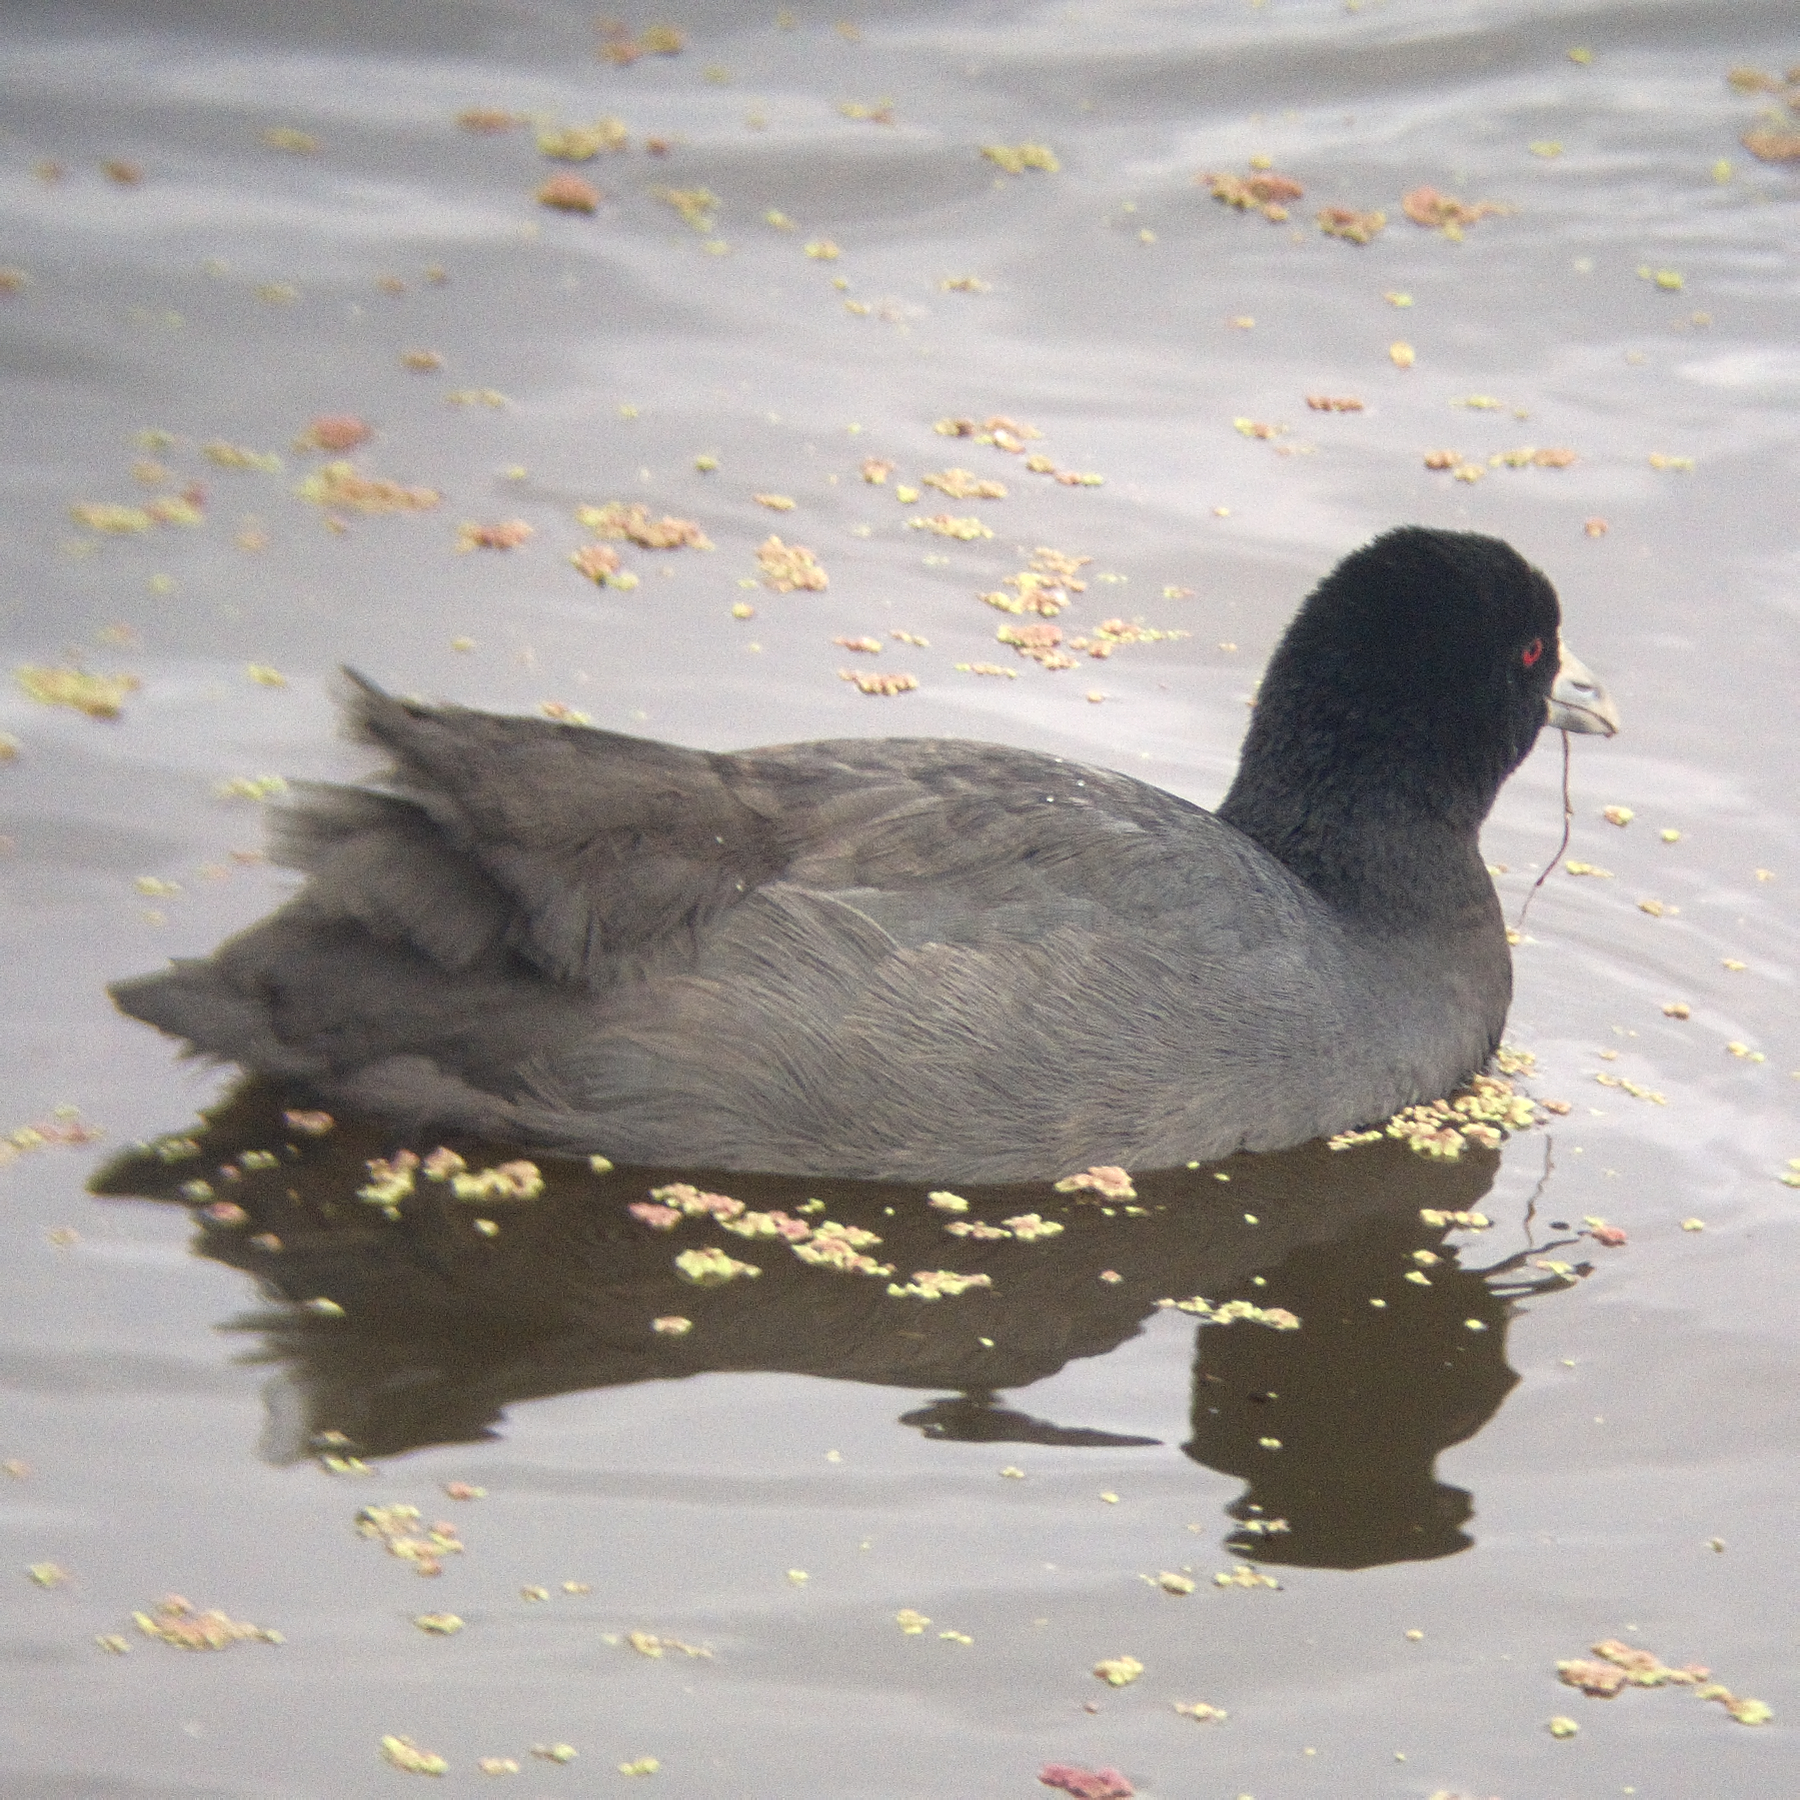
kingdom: Animalia
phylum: Chordata
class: Aves
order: Gruiformes
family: Rallidae
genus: Fulica
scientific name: Fulica atra
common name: Eurasian coot
